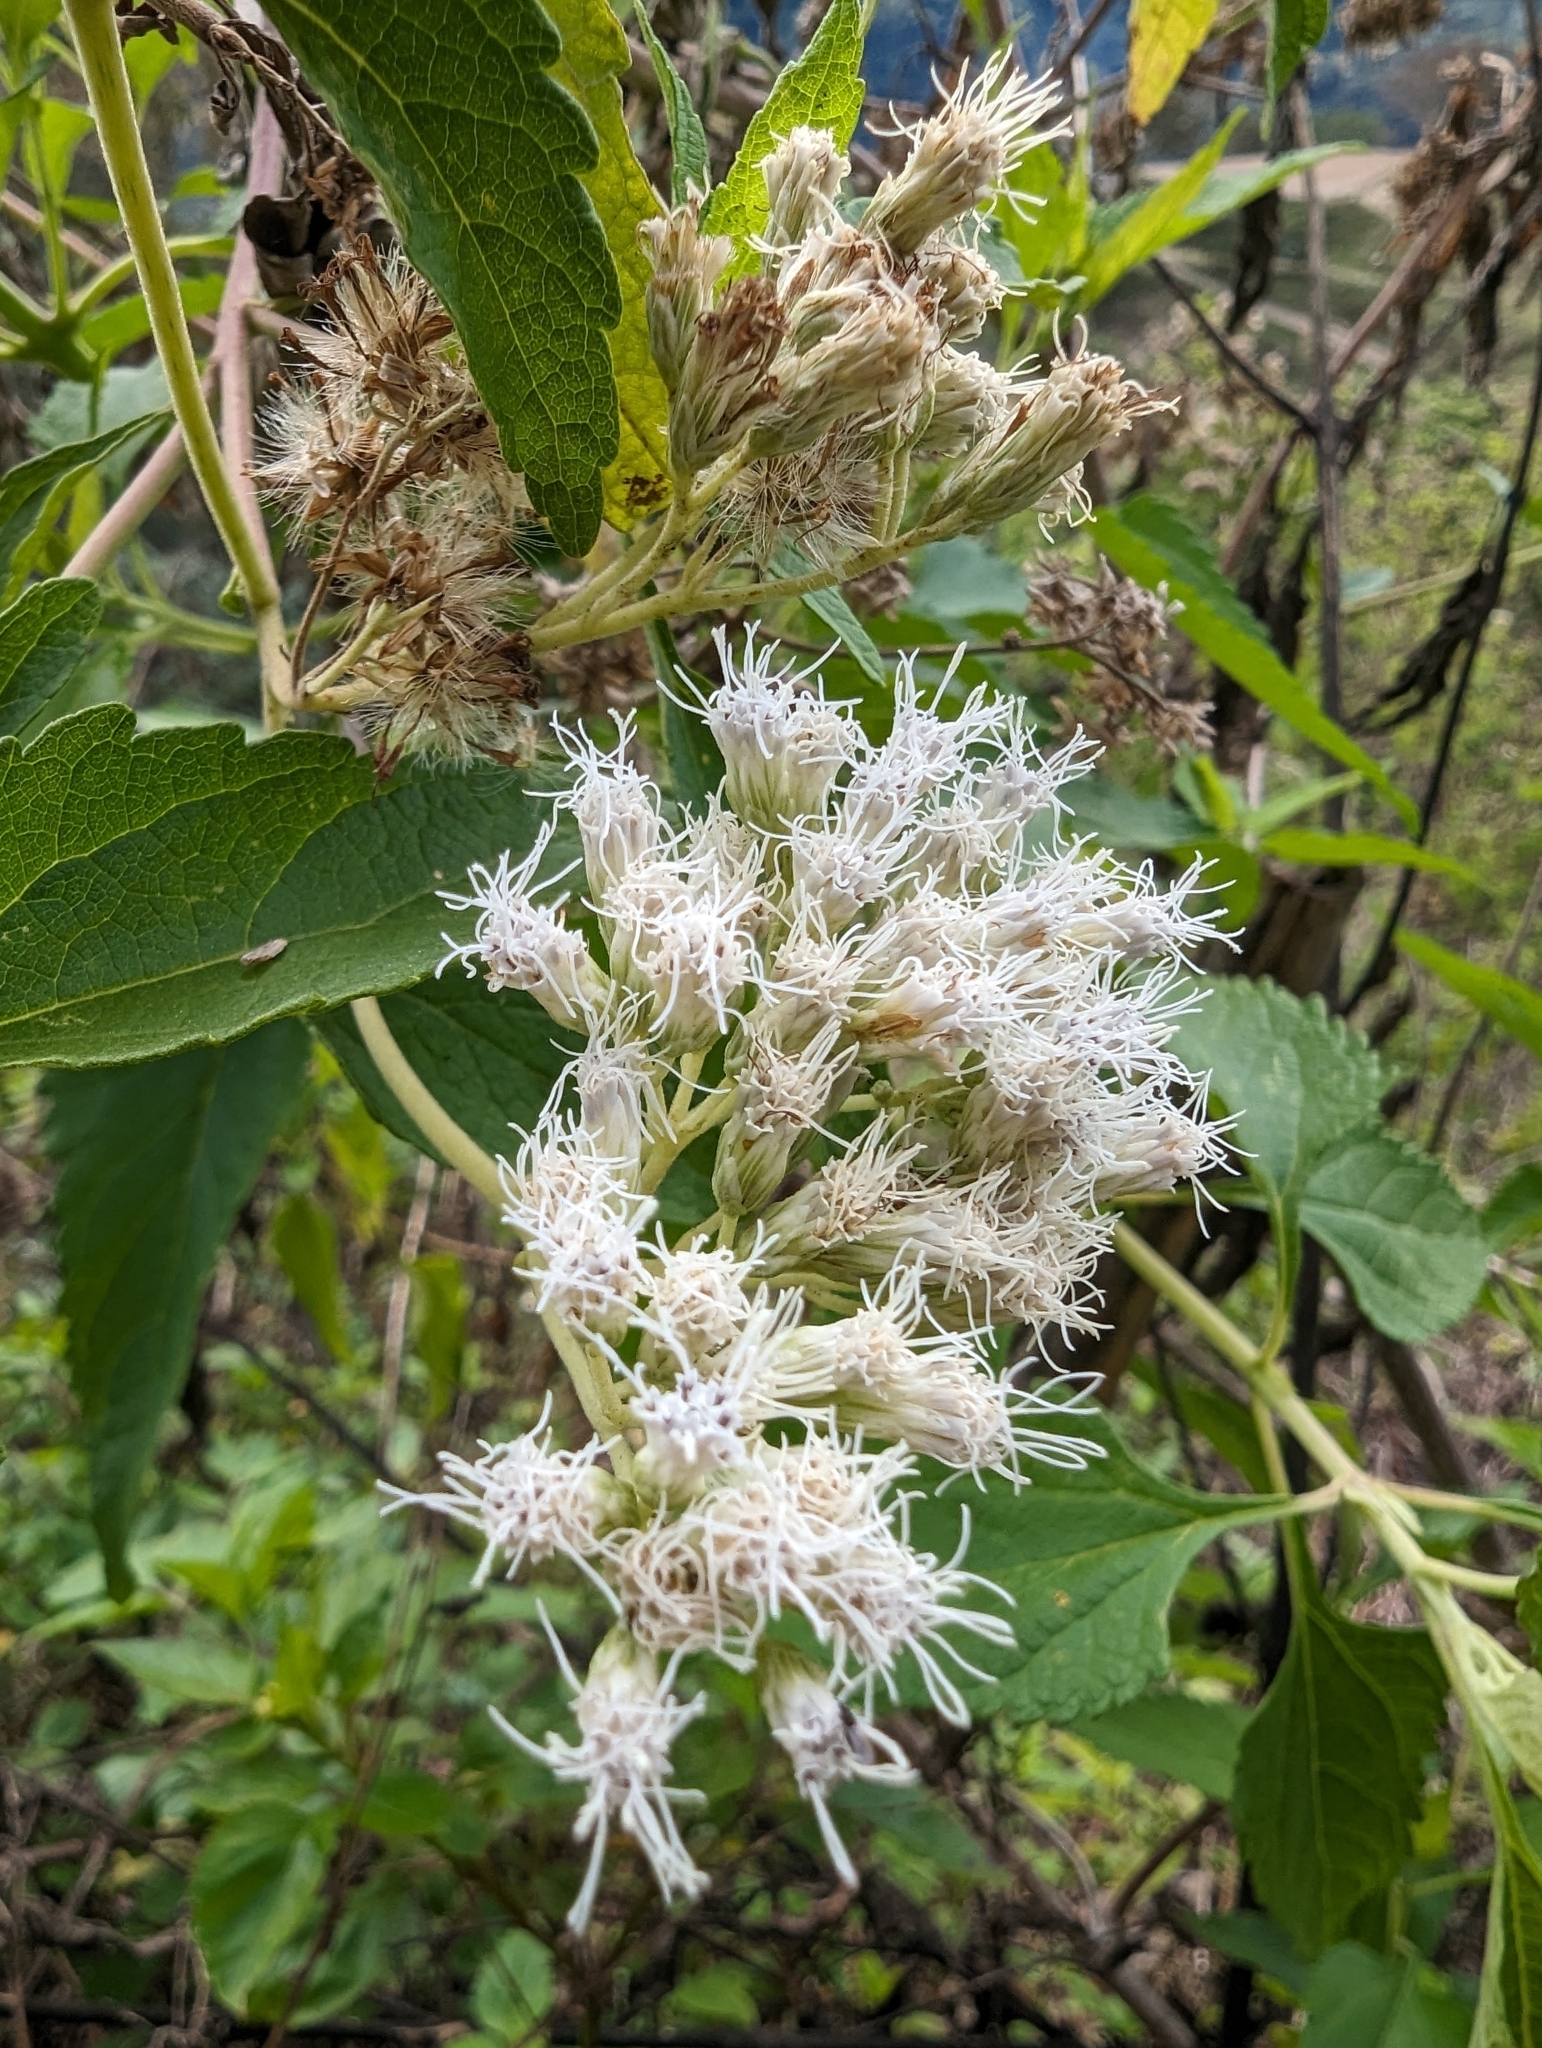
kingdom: Plantae
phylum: Tracheophyta
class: Magnoliopsida
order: Asterales
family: Asteraceae
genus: Austroeupatorium
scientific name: Austroeupatorium inulifolium
